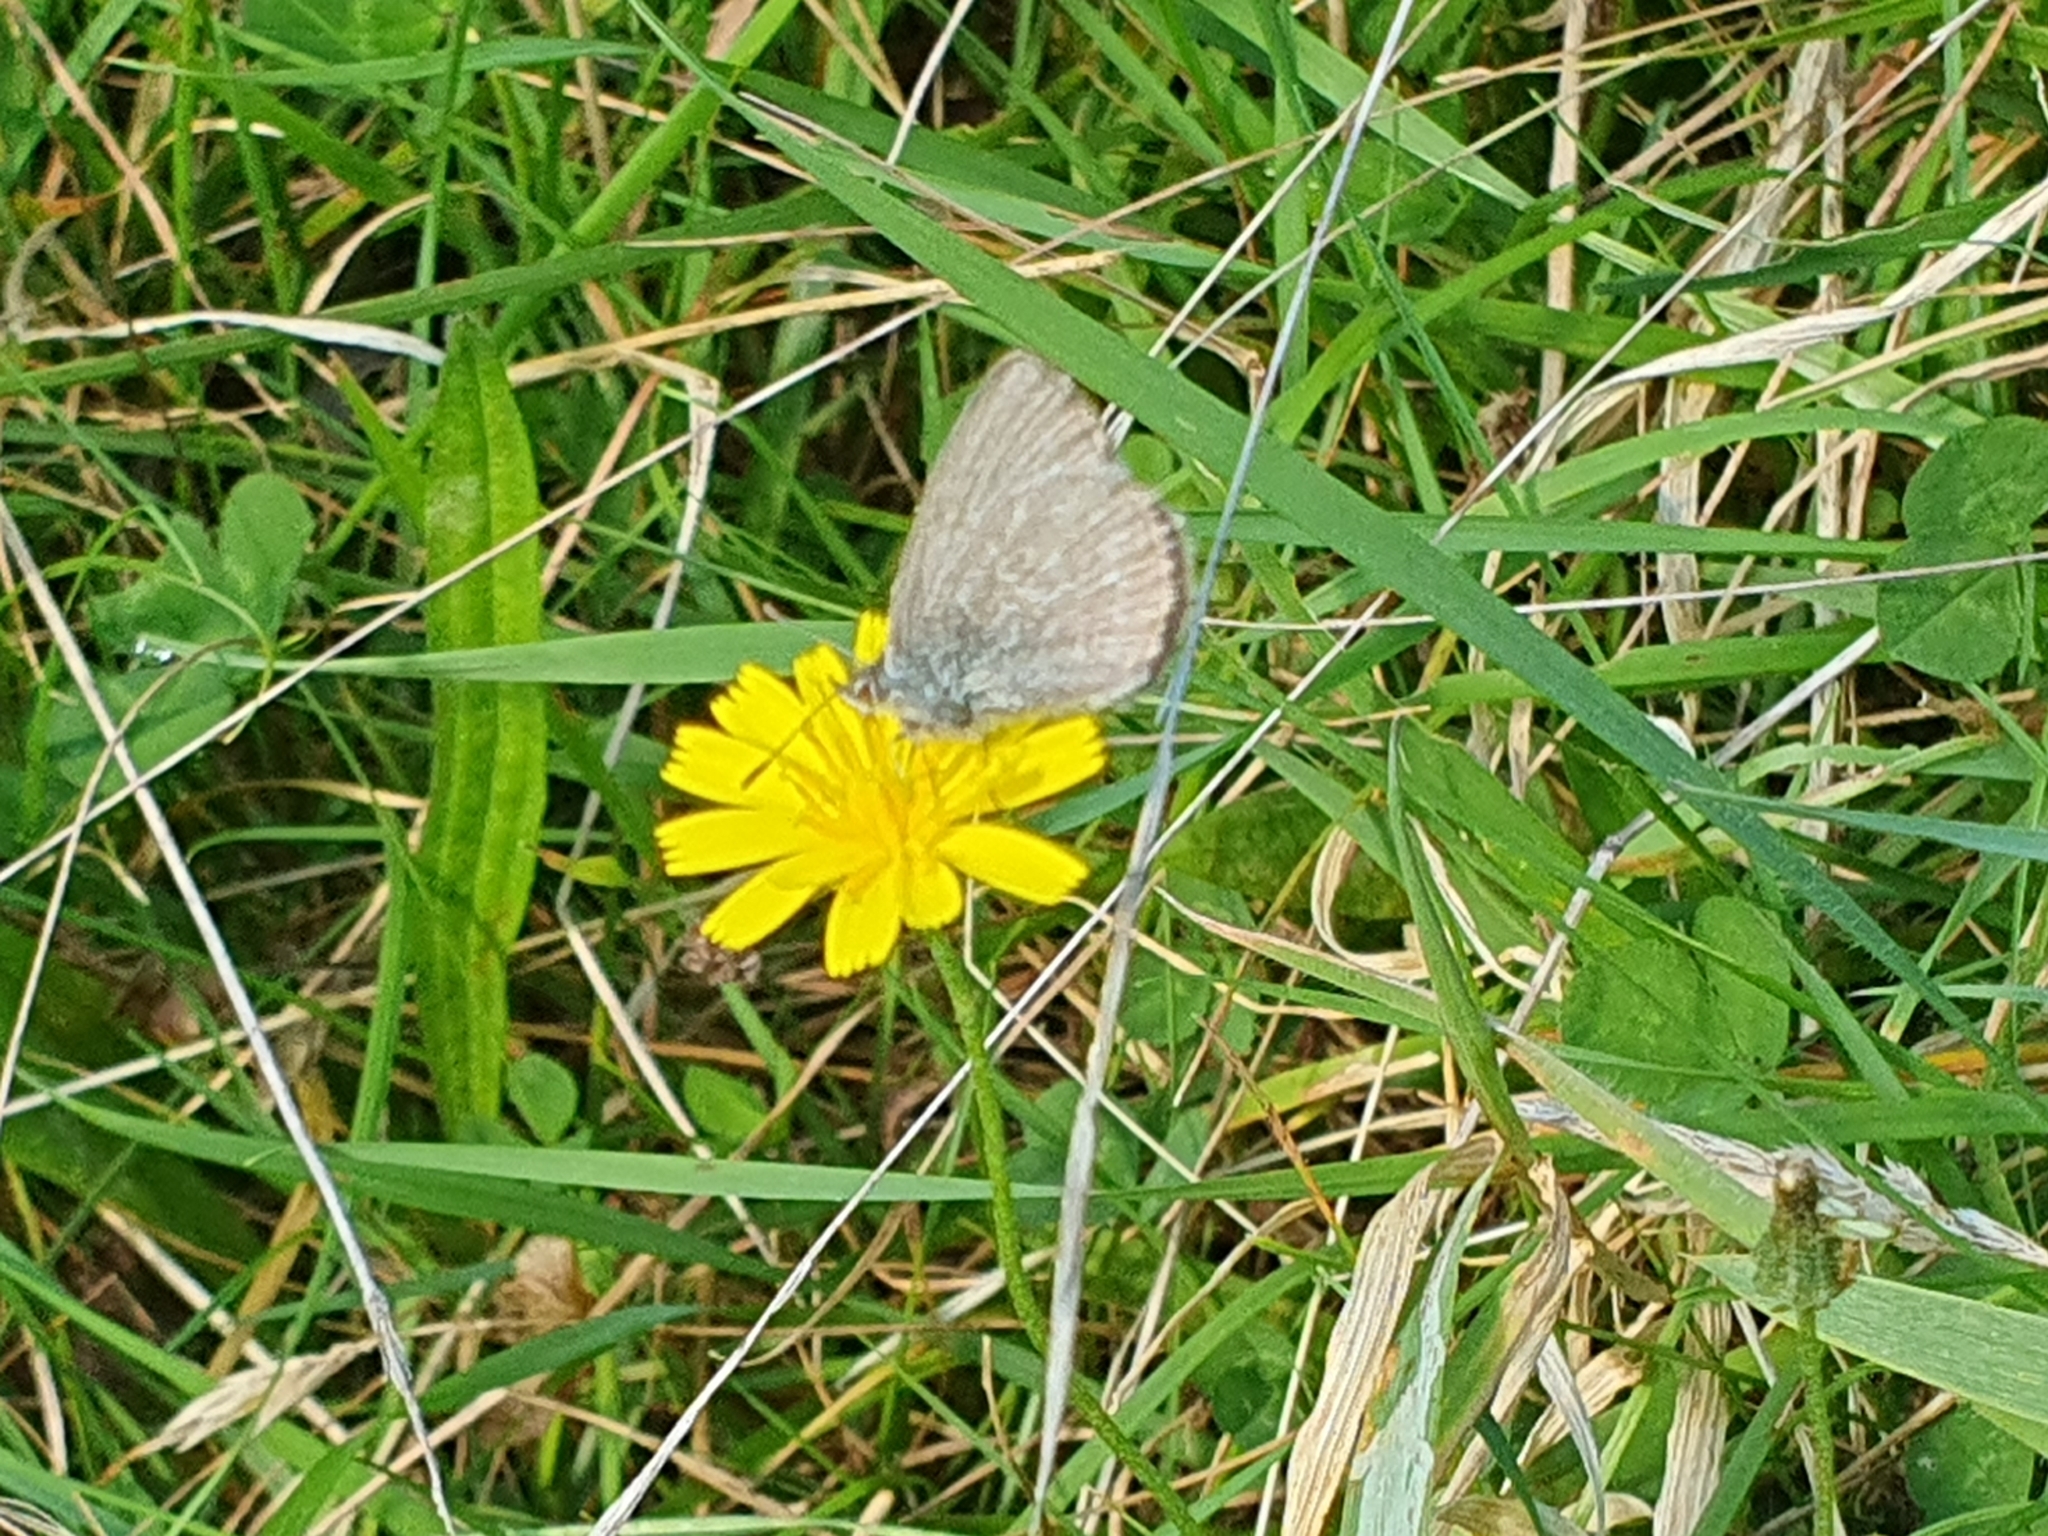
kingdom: Animalia
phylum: Arthropoda
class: Insecta
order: Lepidoptera
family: Lycaenidae
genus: Zizina
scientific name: Zizina labradus
